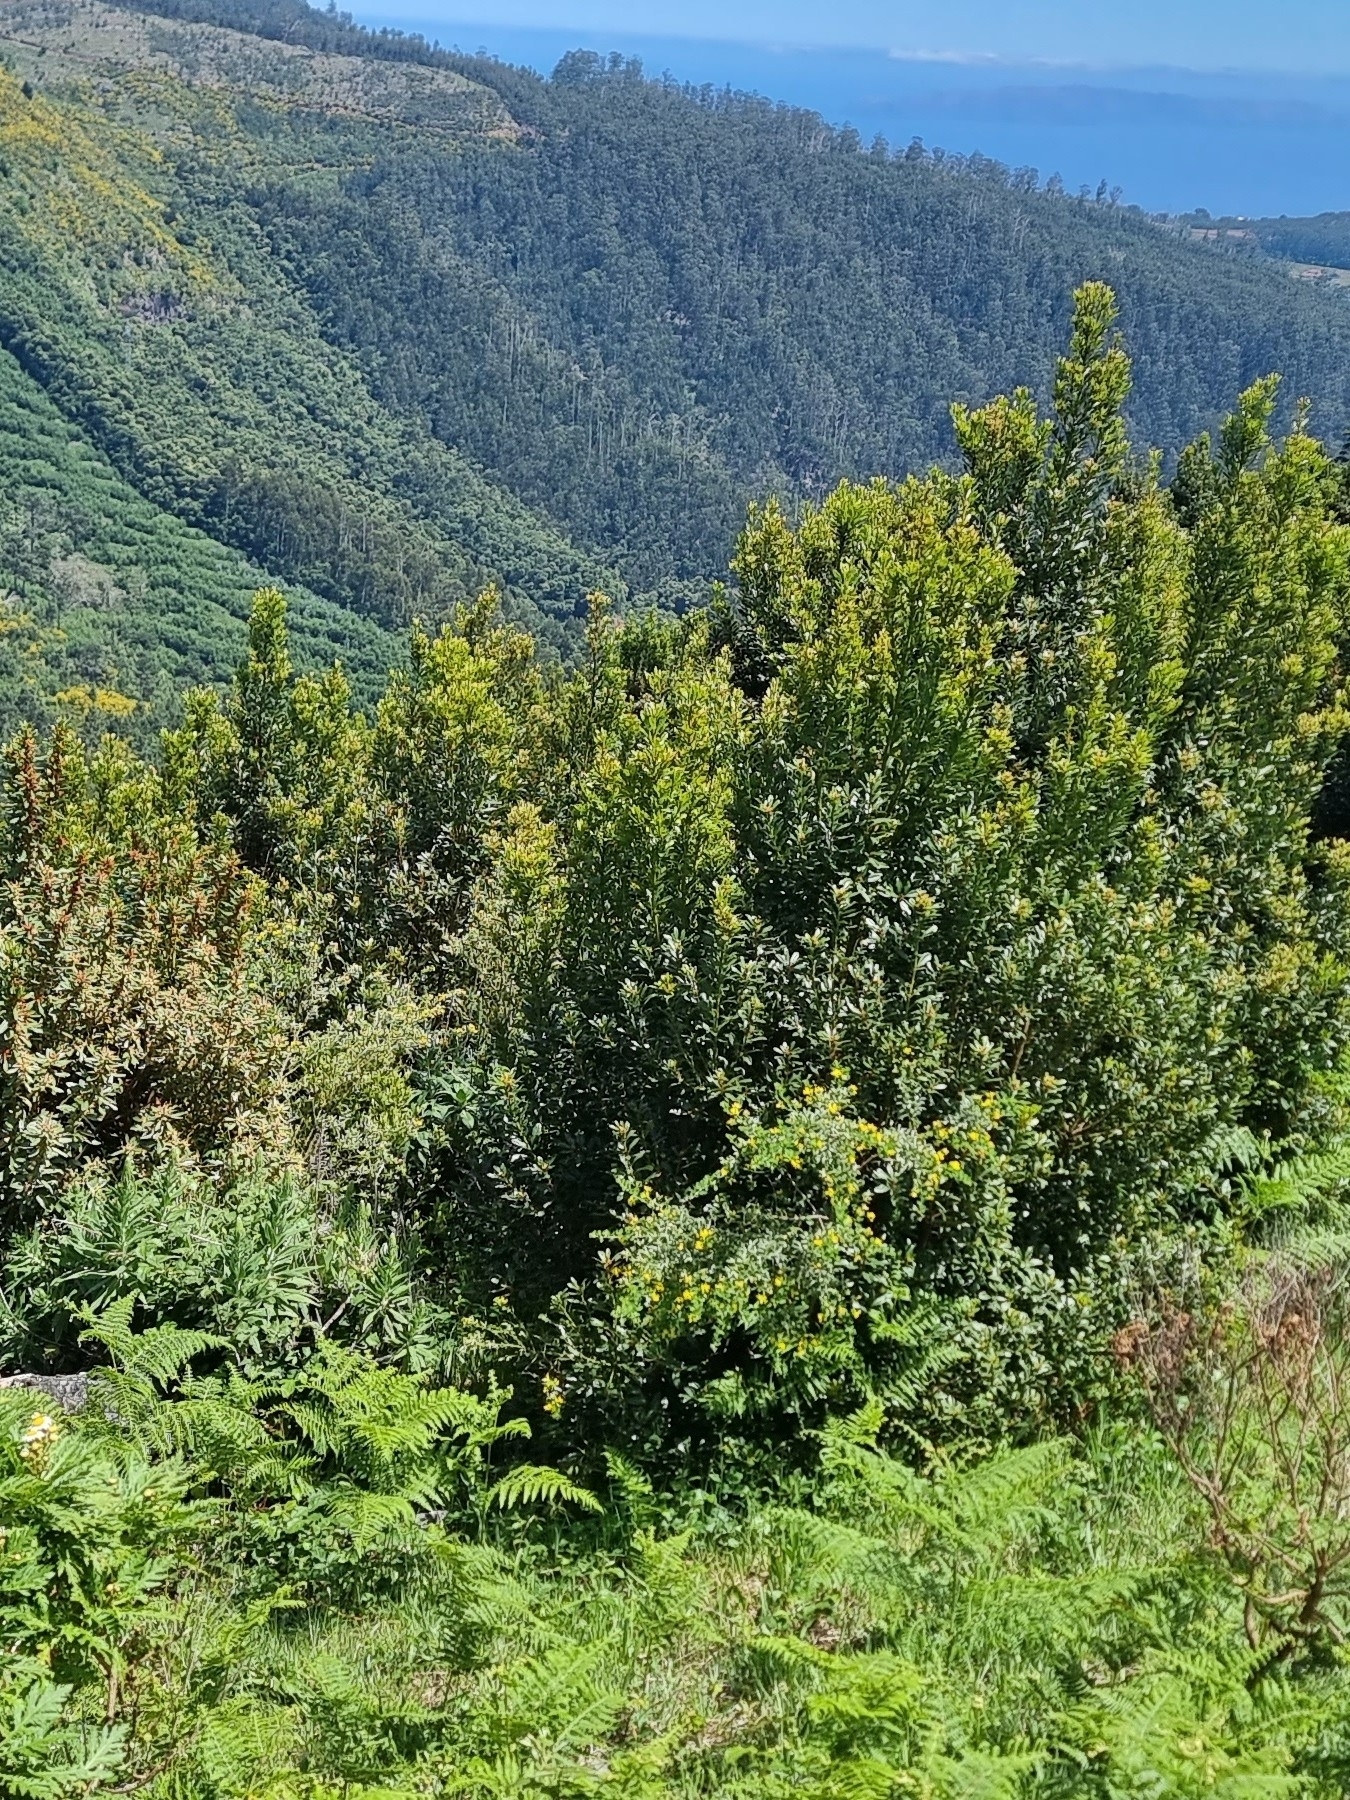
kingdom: Plantae
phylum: Tracheophyta
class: Magnoliopsida
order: Fagales
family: Myricaceae
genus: Morella
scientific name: Morella faya
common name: Firetree
